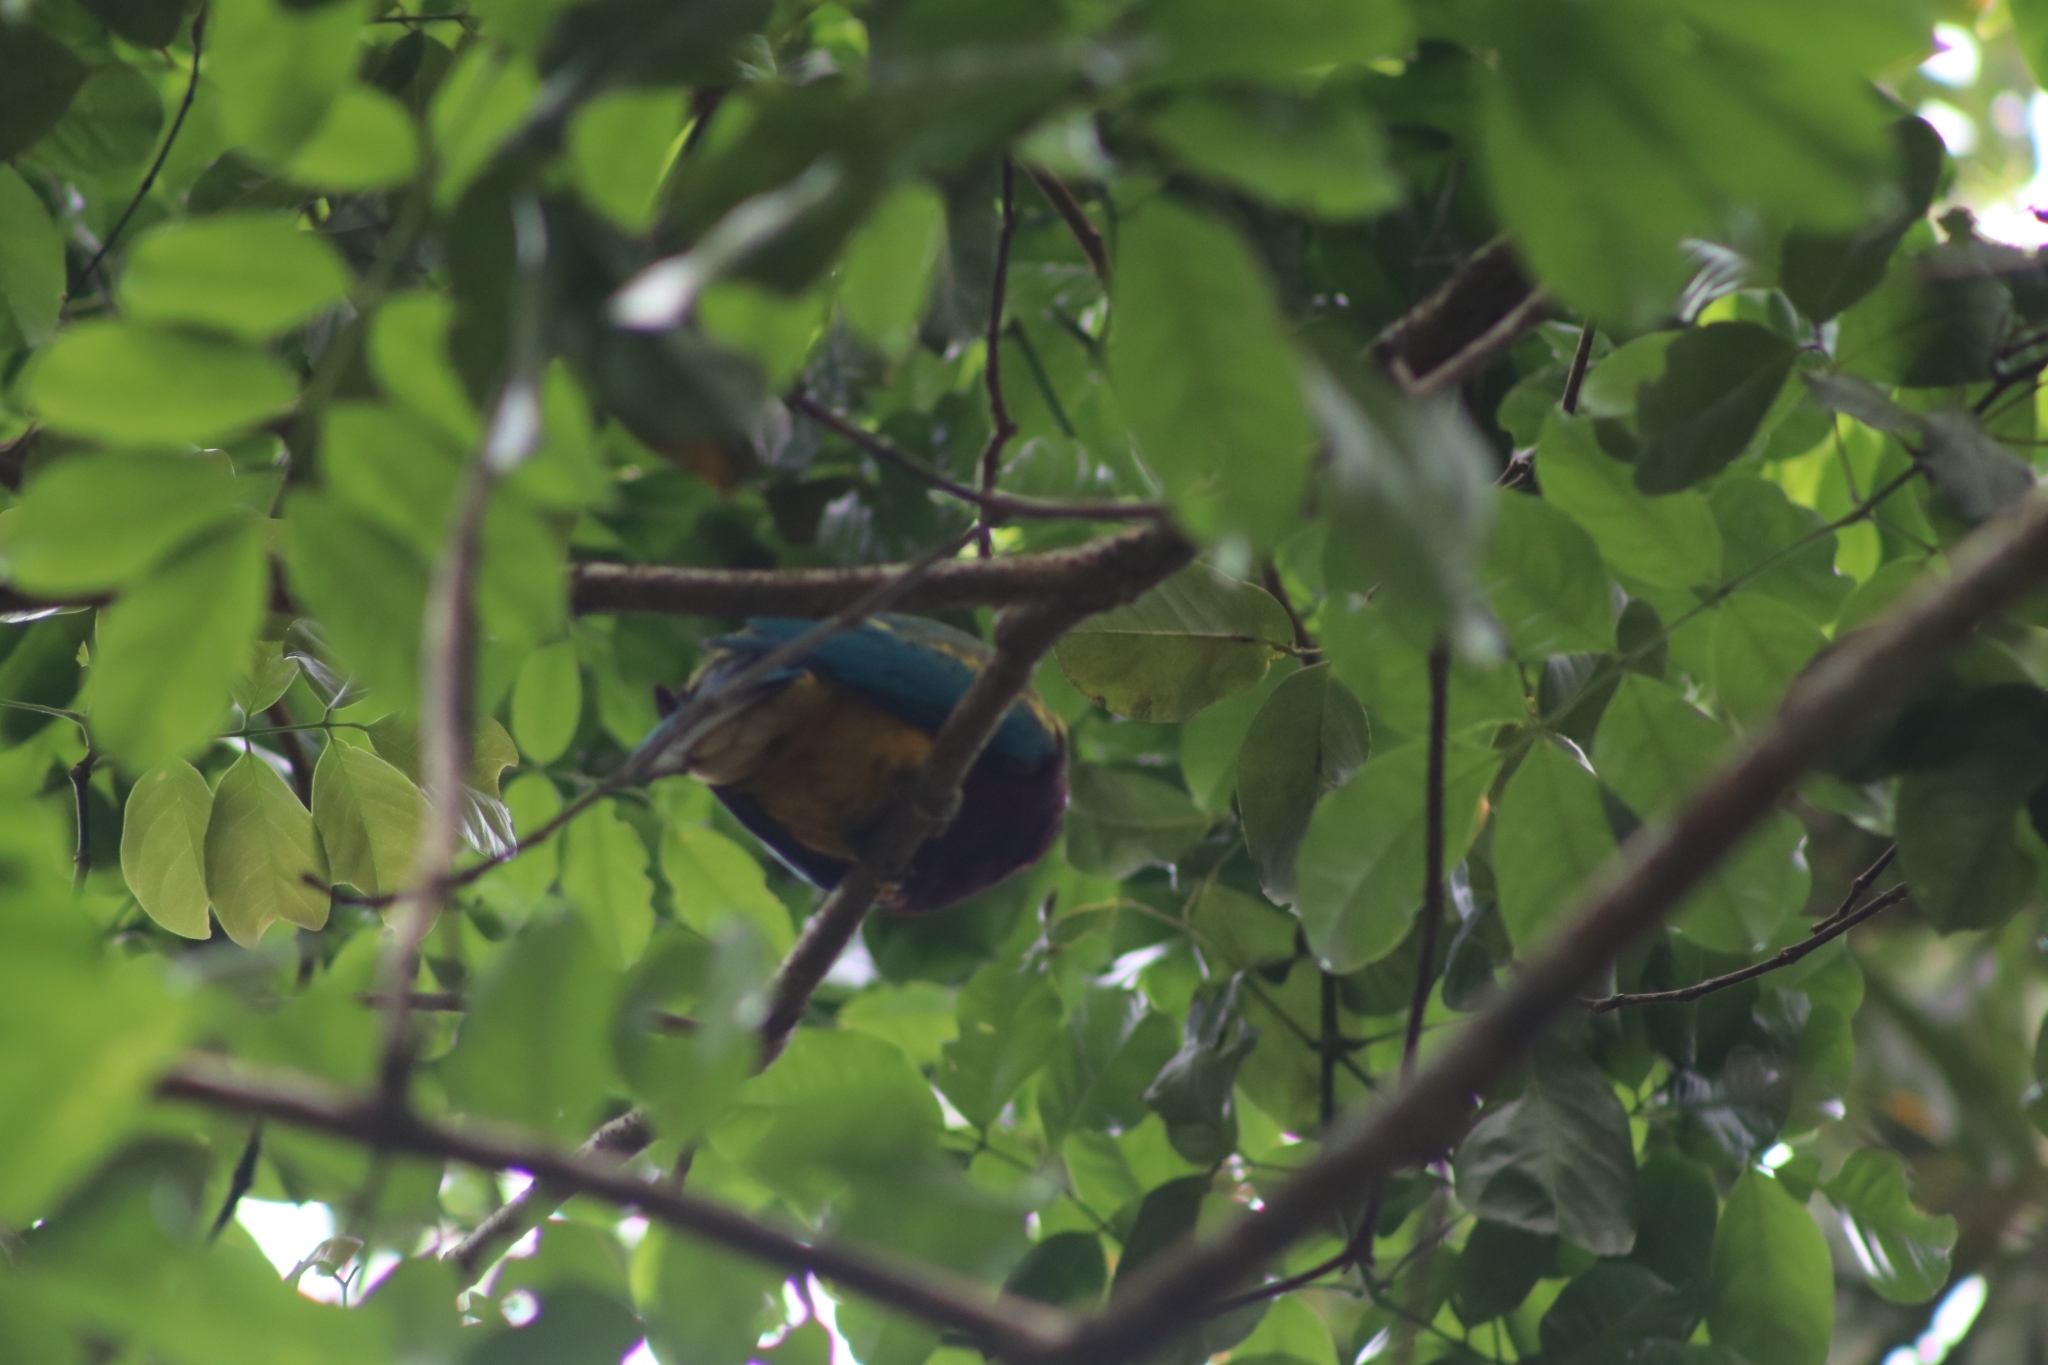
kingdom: Animalia
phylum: Chordata
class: Aves
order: Columbiformes
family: Columbidae
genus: Ptilinopus
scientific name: Ptilinopus magnificus
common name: Wompoo fruit dove
